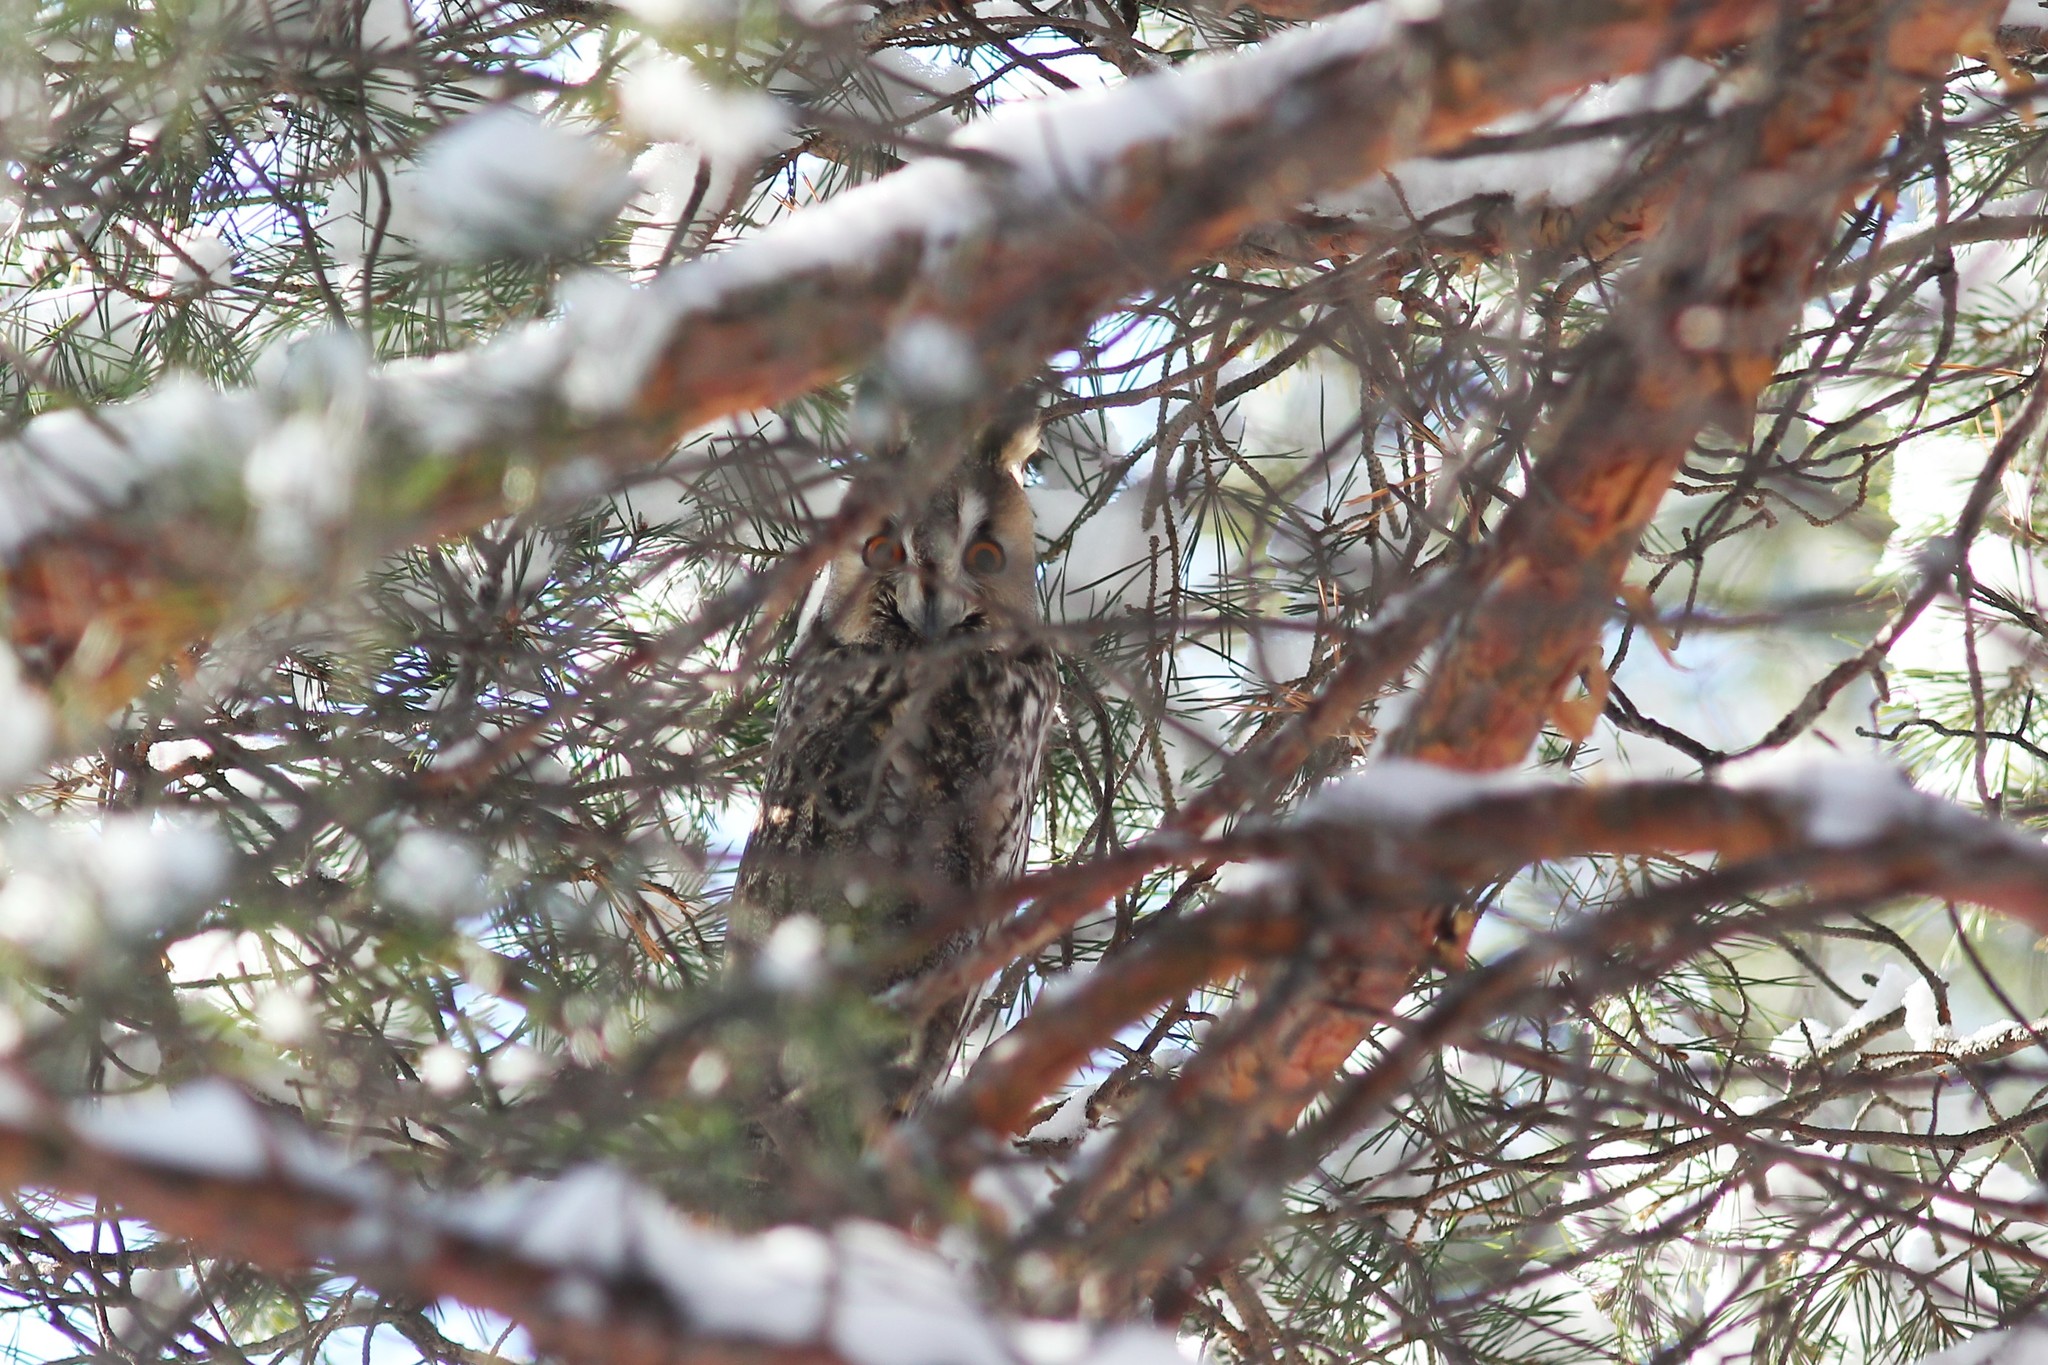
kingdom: Animalia
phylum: Chordata
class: Aves
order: Strigiformes
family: Strigidae
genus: Asio
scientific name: Asio otus
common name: Long-eared owl
